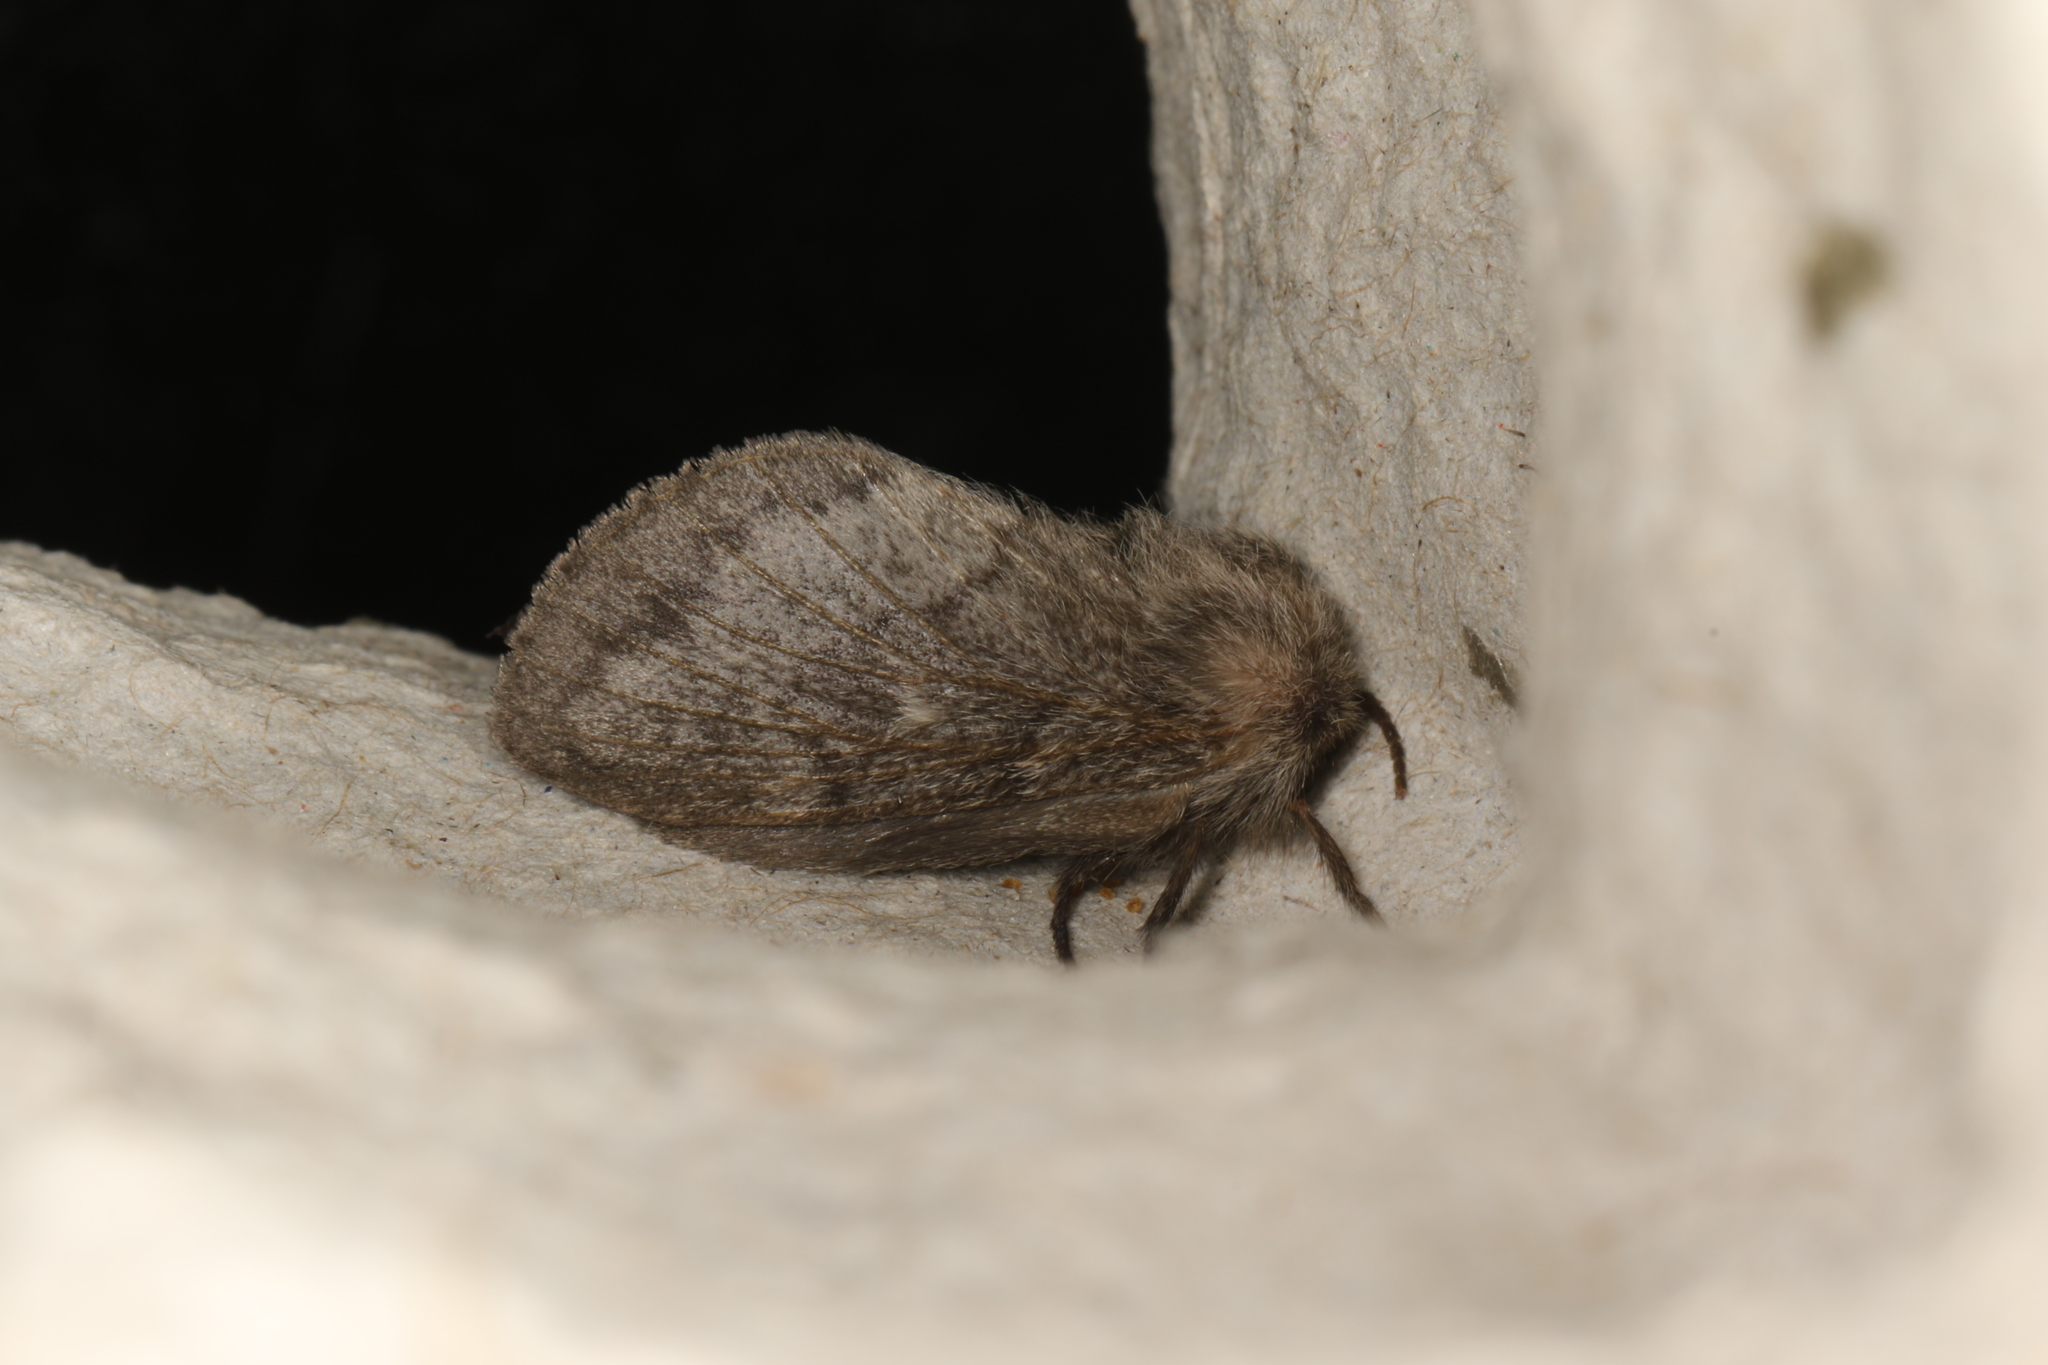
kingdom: Animalia
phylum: Arthropoda
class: Insecta
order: Lepidoptera
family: Lasiocampidae
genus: Pernattia
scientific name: Pernattia pusilla
